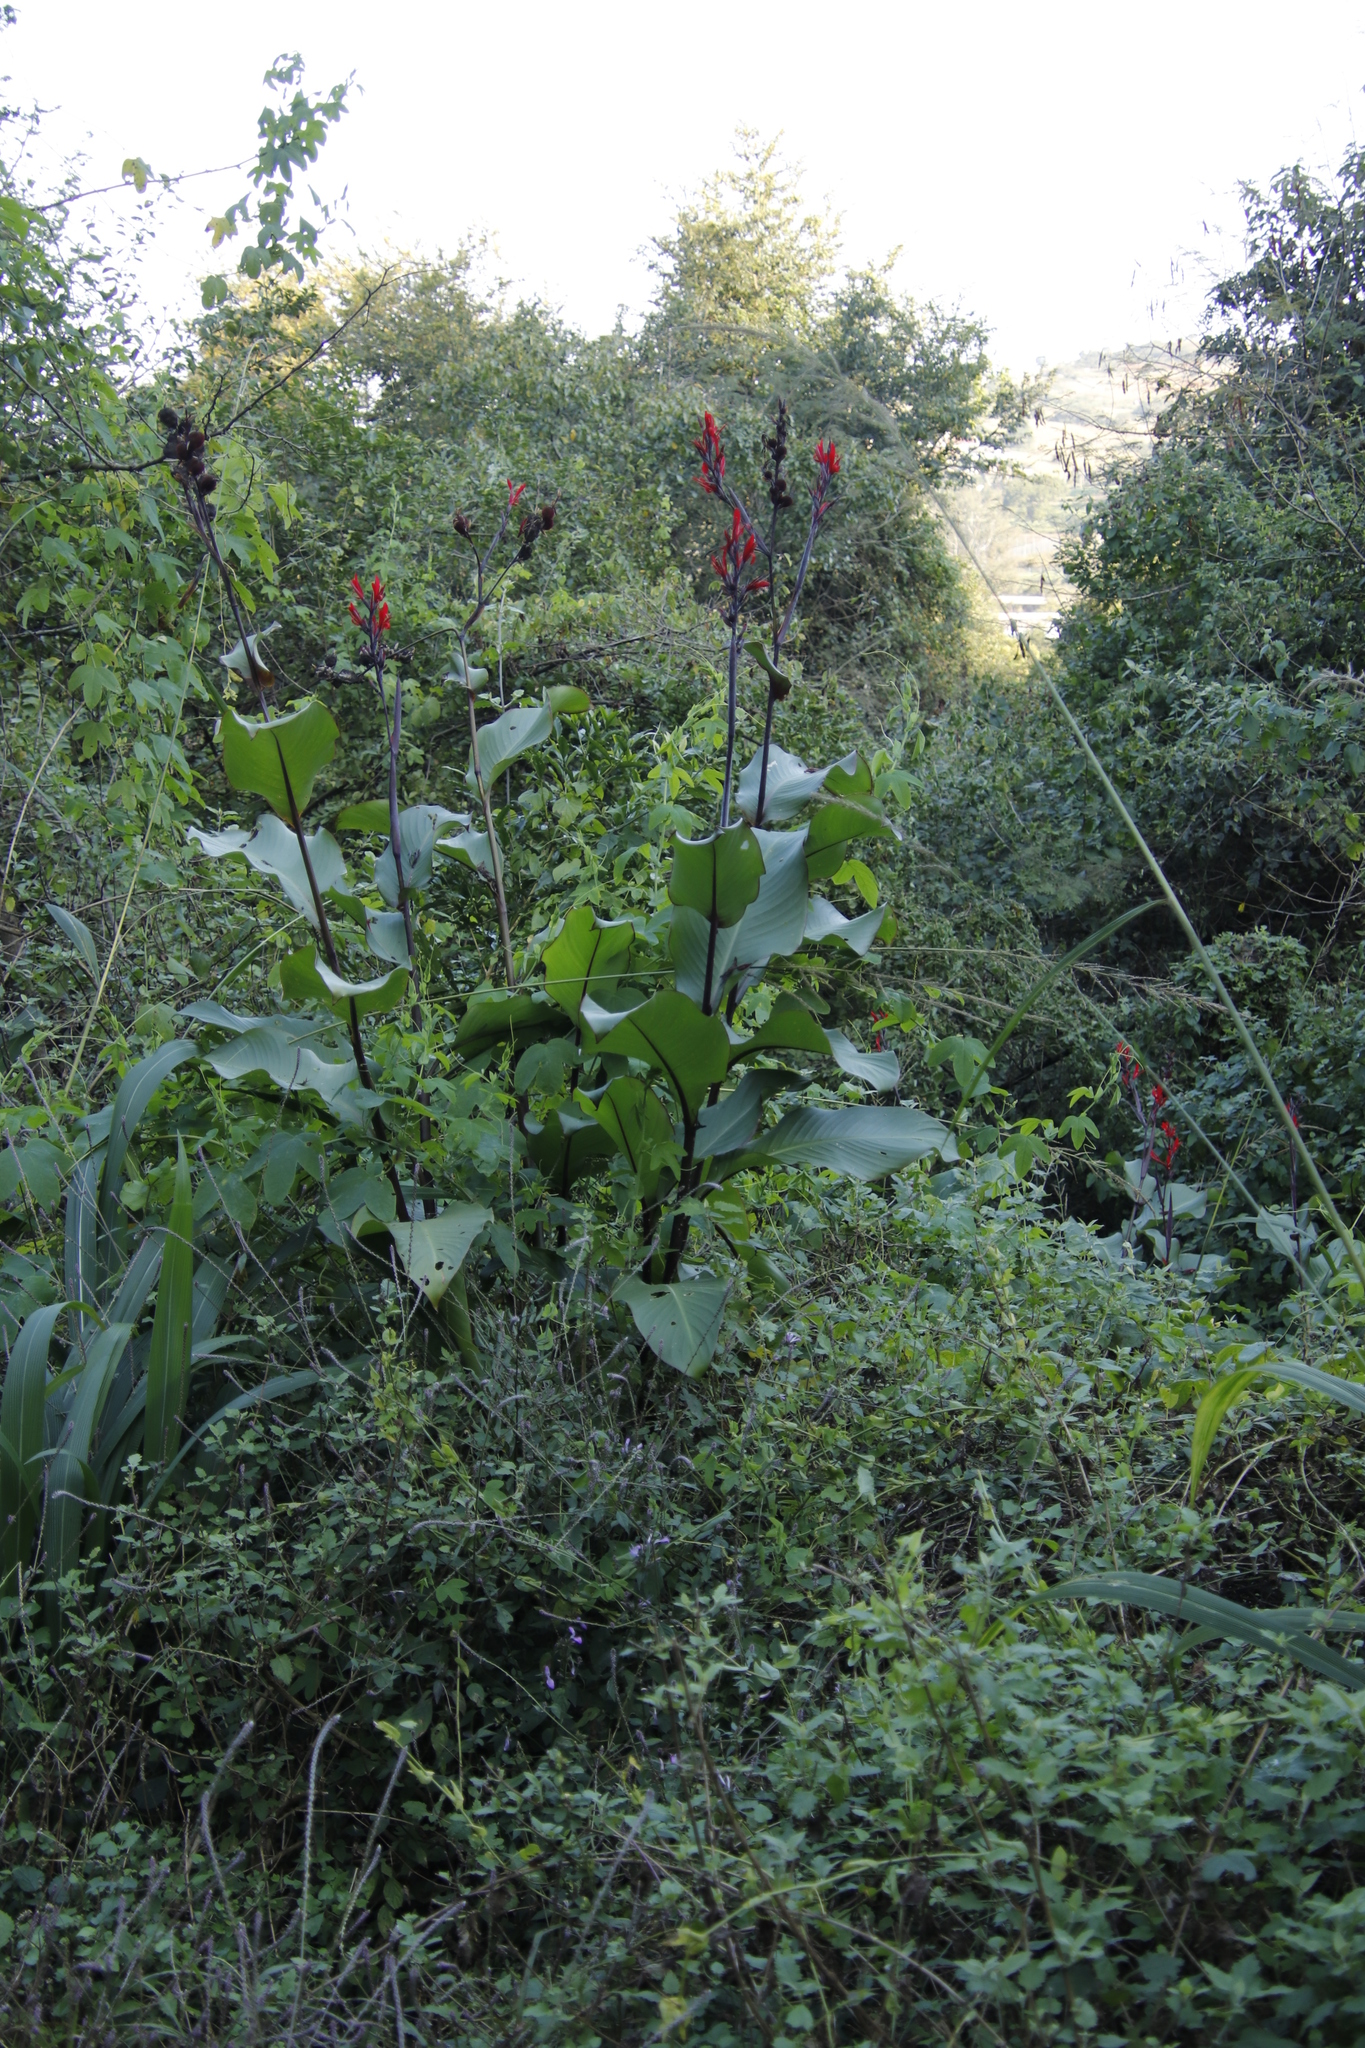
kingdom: Plantae
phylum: Tracheophyta
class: Liliopsida
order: Zingiberales
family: Cannaceae
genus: Canna
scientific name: Canna indica
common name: Indian shot
